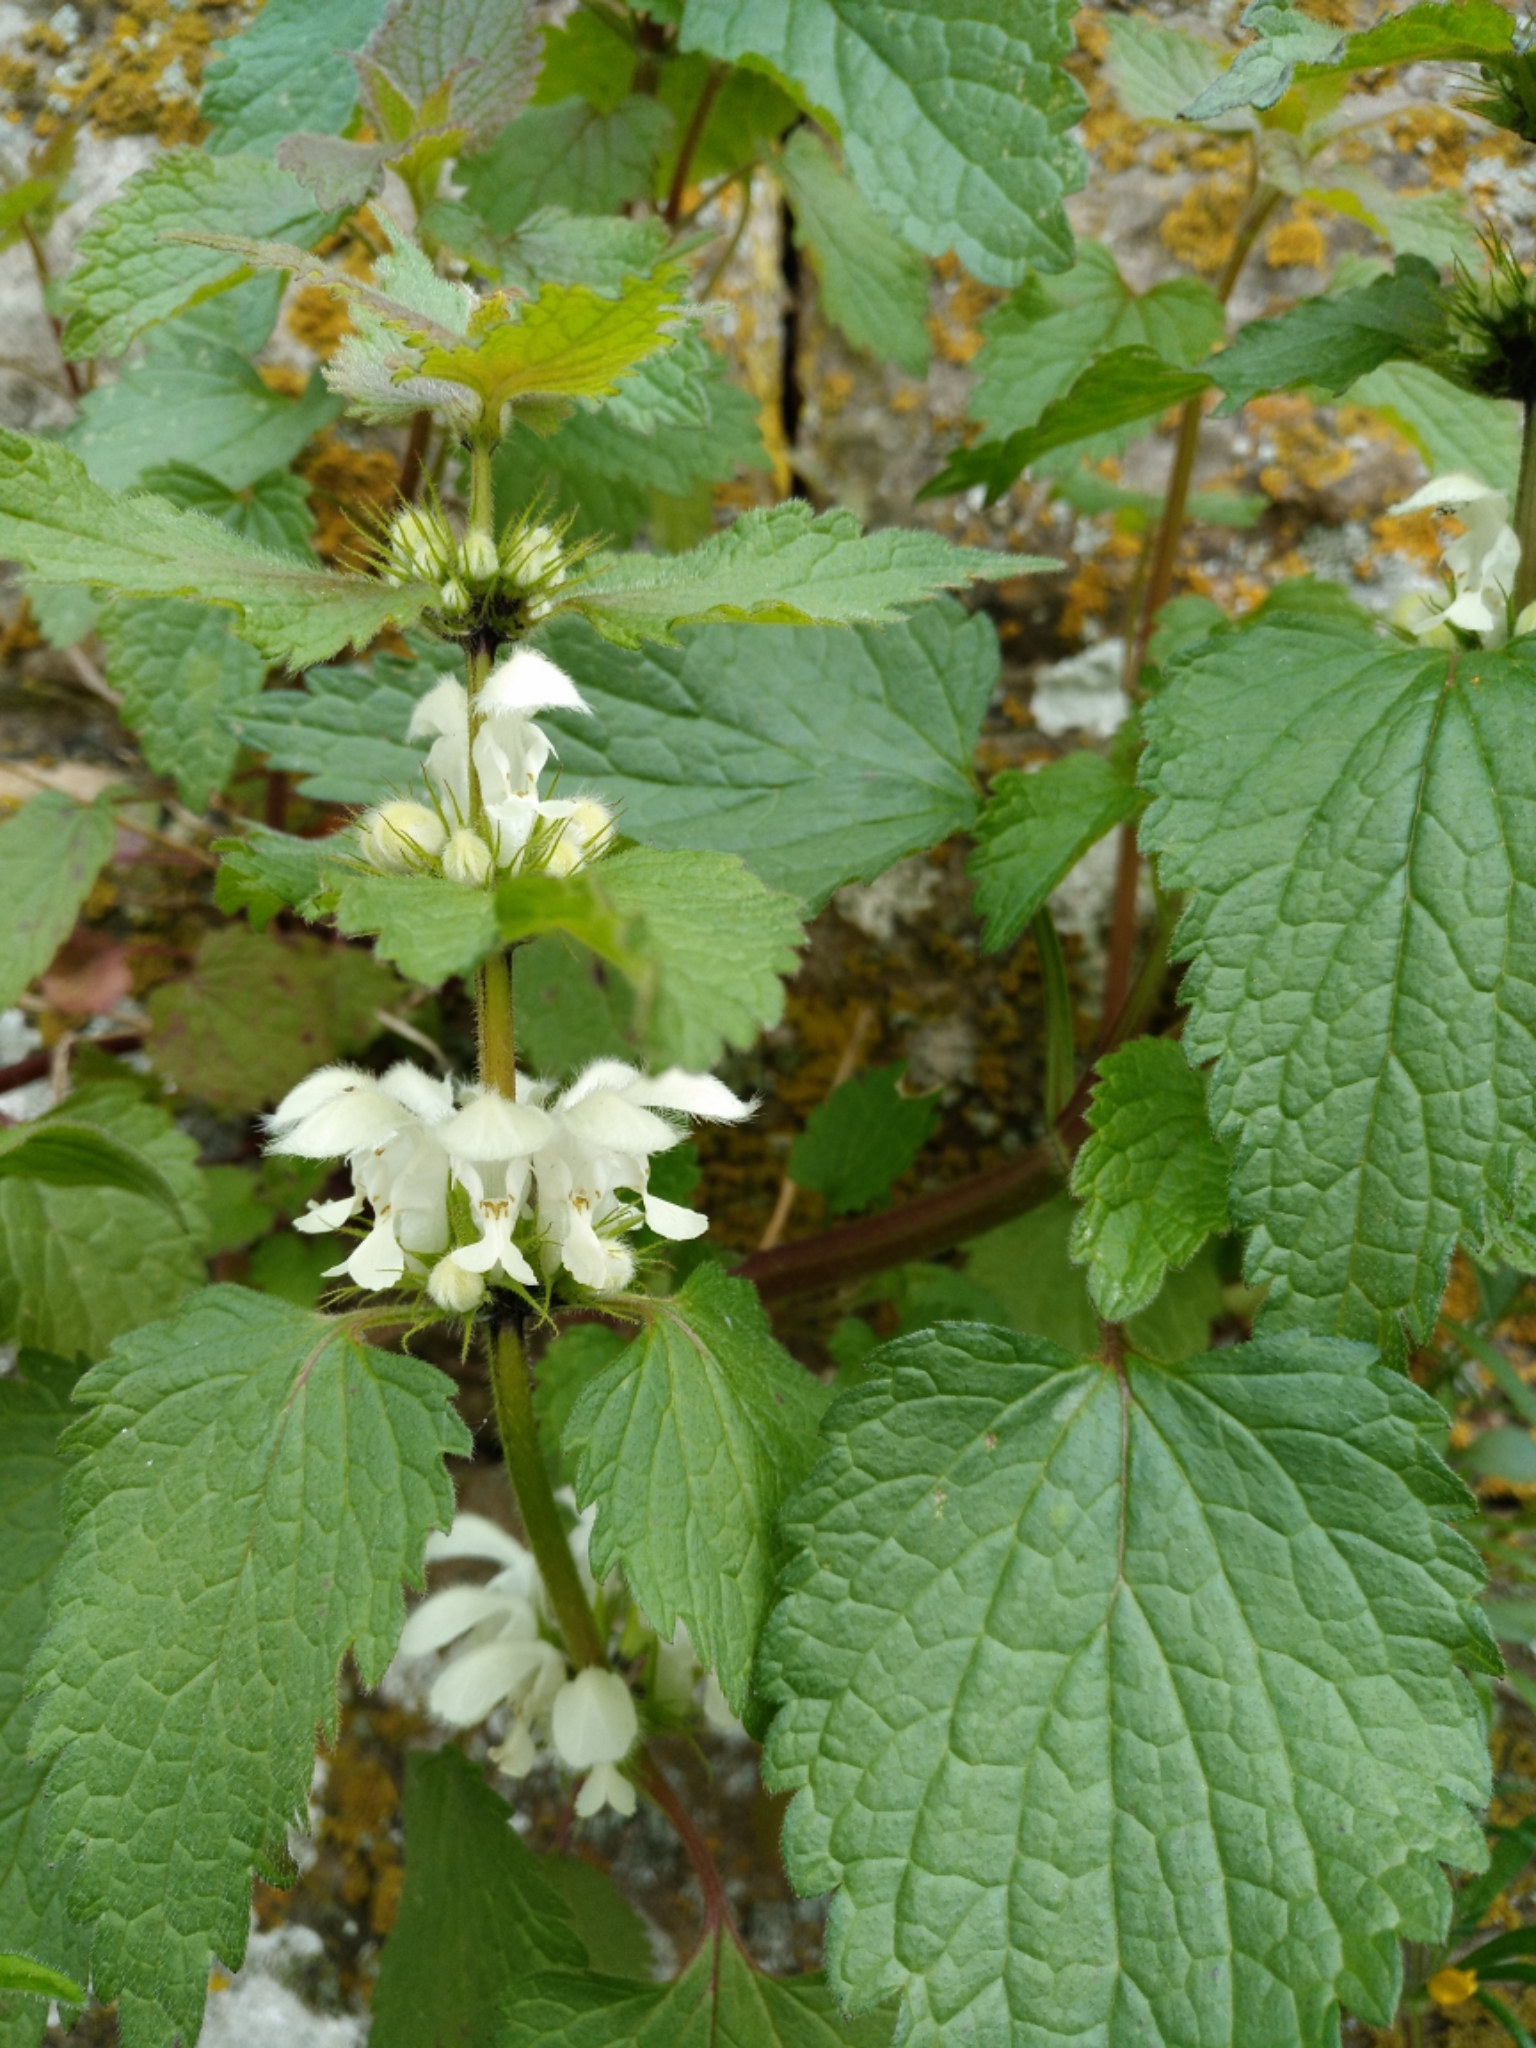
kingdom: Plantae
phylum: Tracheophyta
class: Magnoliopsida
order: Lamiales
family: Lamiaceae
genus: Lamium
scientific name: Lamium album
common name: White dead-nettle
